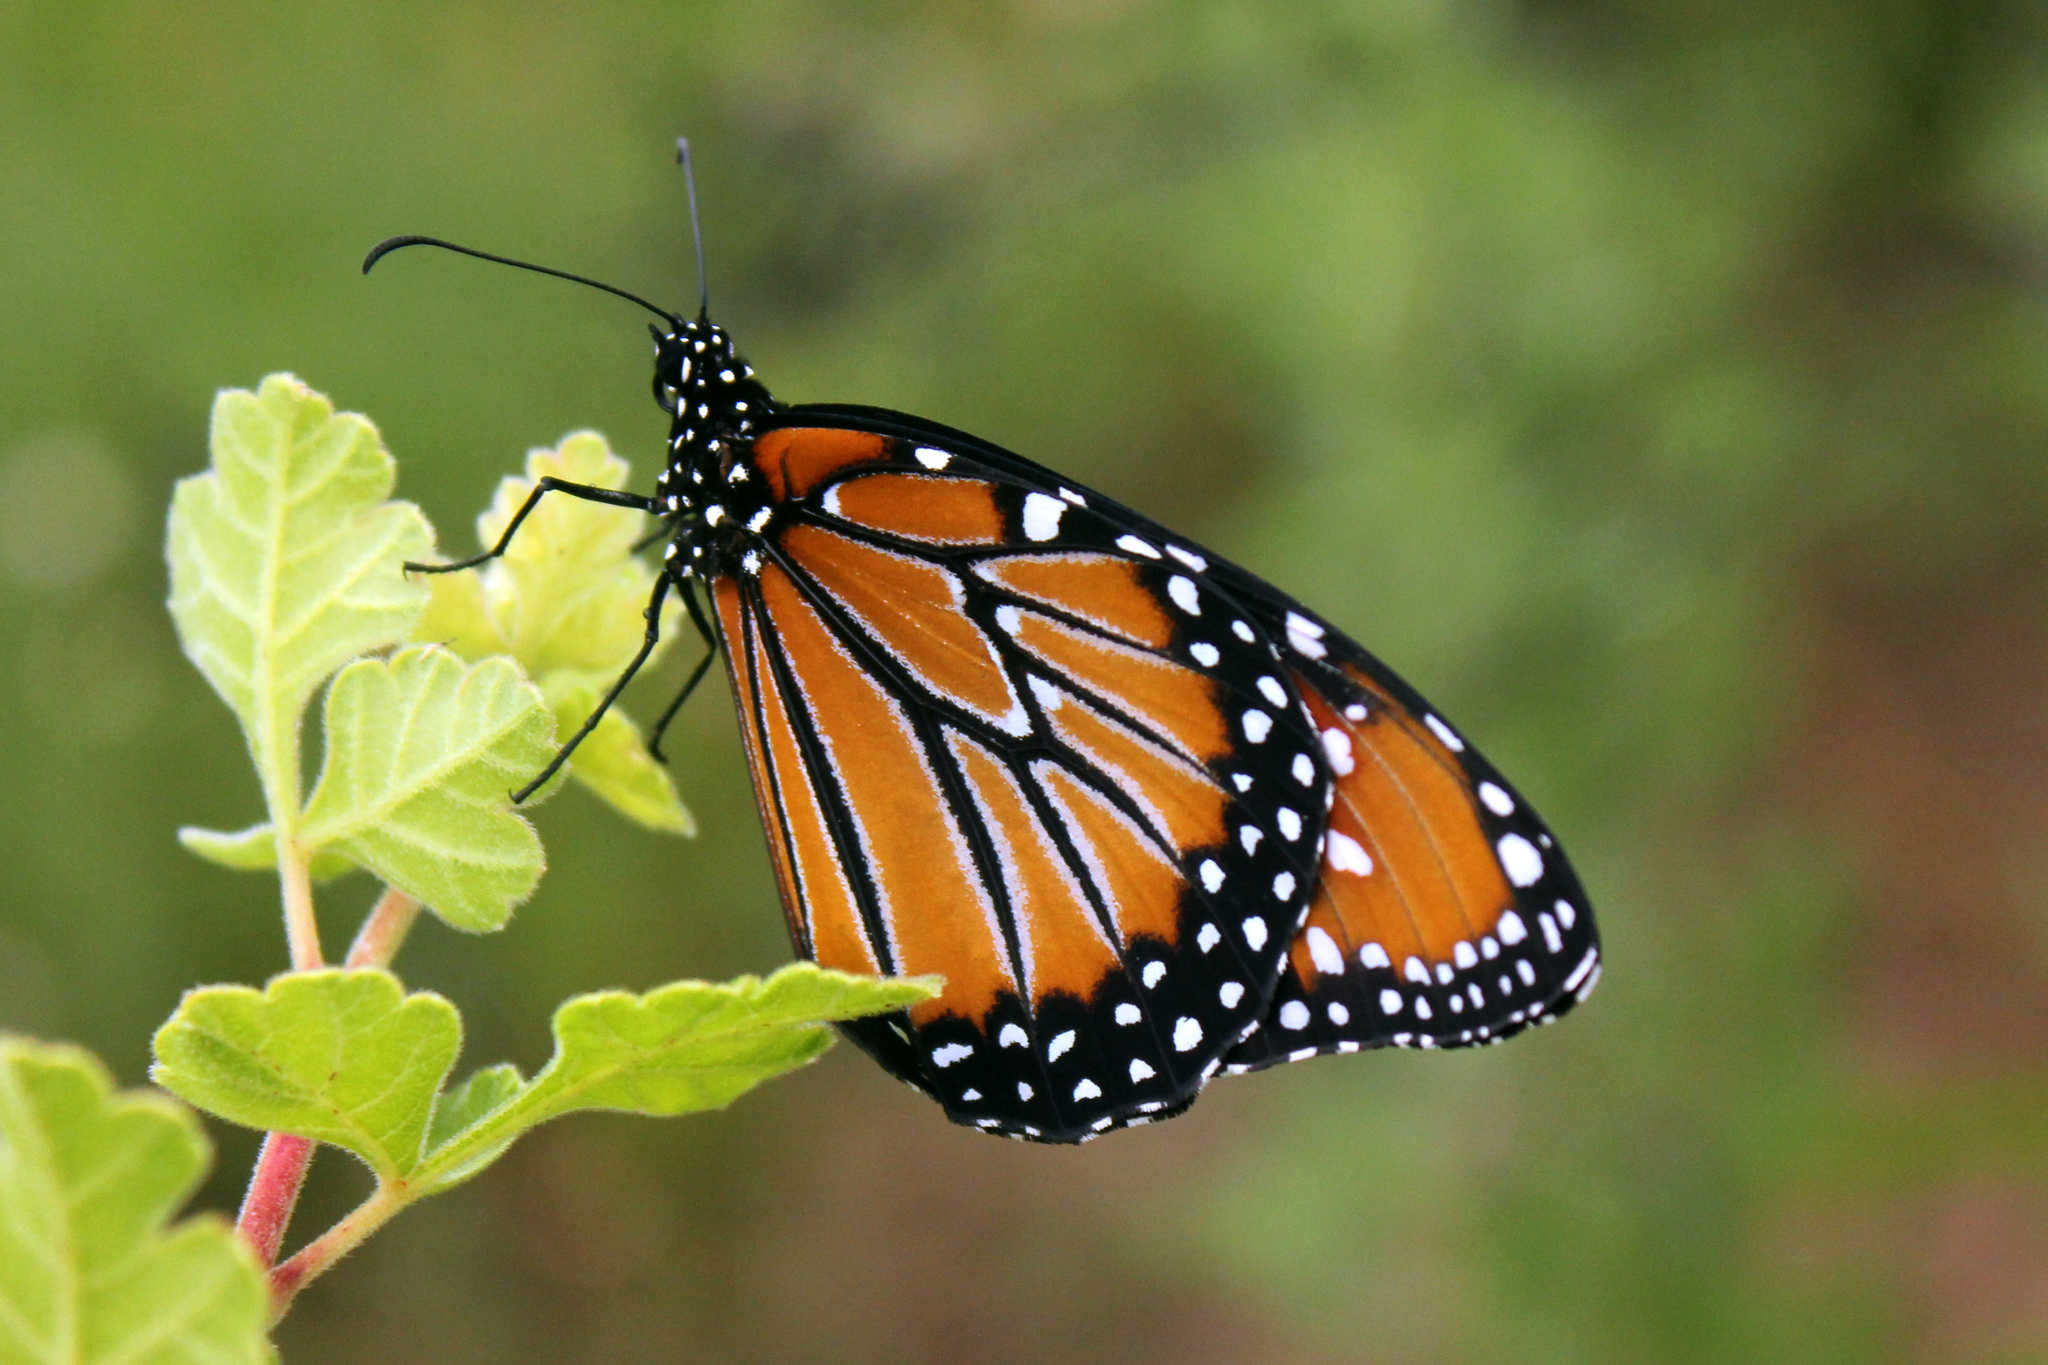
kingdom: Animalia
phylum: Arthropoda
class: Insecta
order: Lepidoptera
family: Nymphalidae
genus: Danaus
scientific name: Danaus gilippus
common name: Queen
